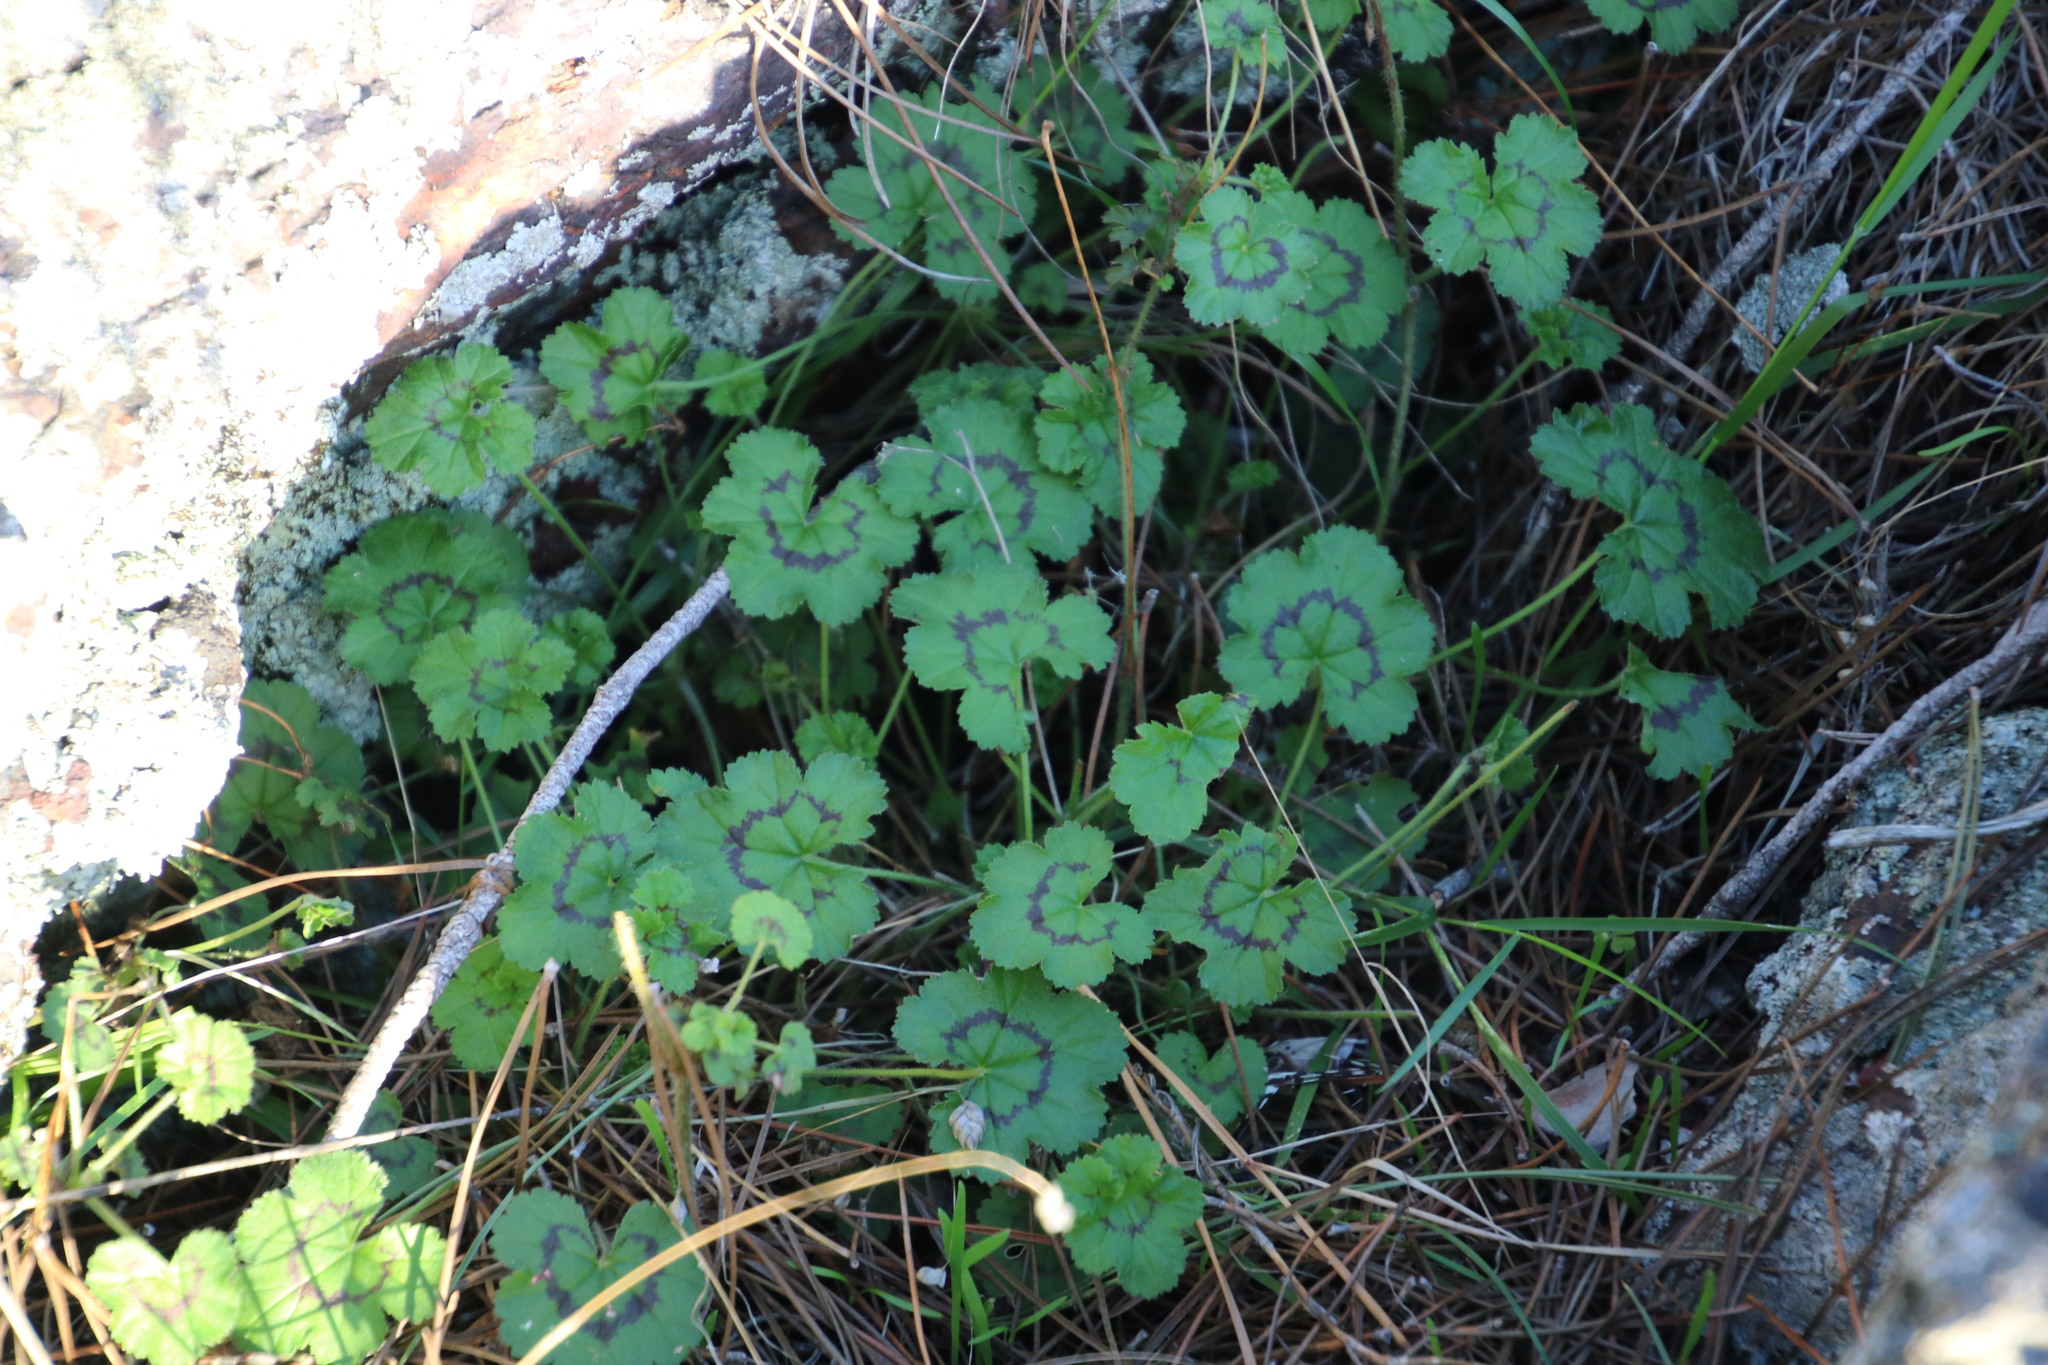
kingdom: Plantae
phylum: Tracheophyta
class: Magnoliopsida
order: Geraniales
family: Geraniaceae
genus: Pelargonium
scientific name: Pelargonium elongatum
